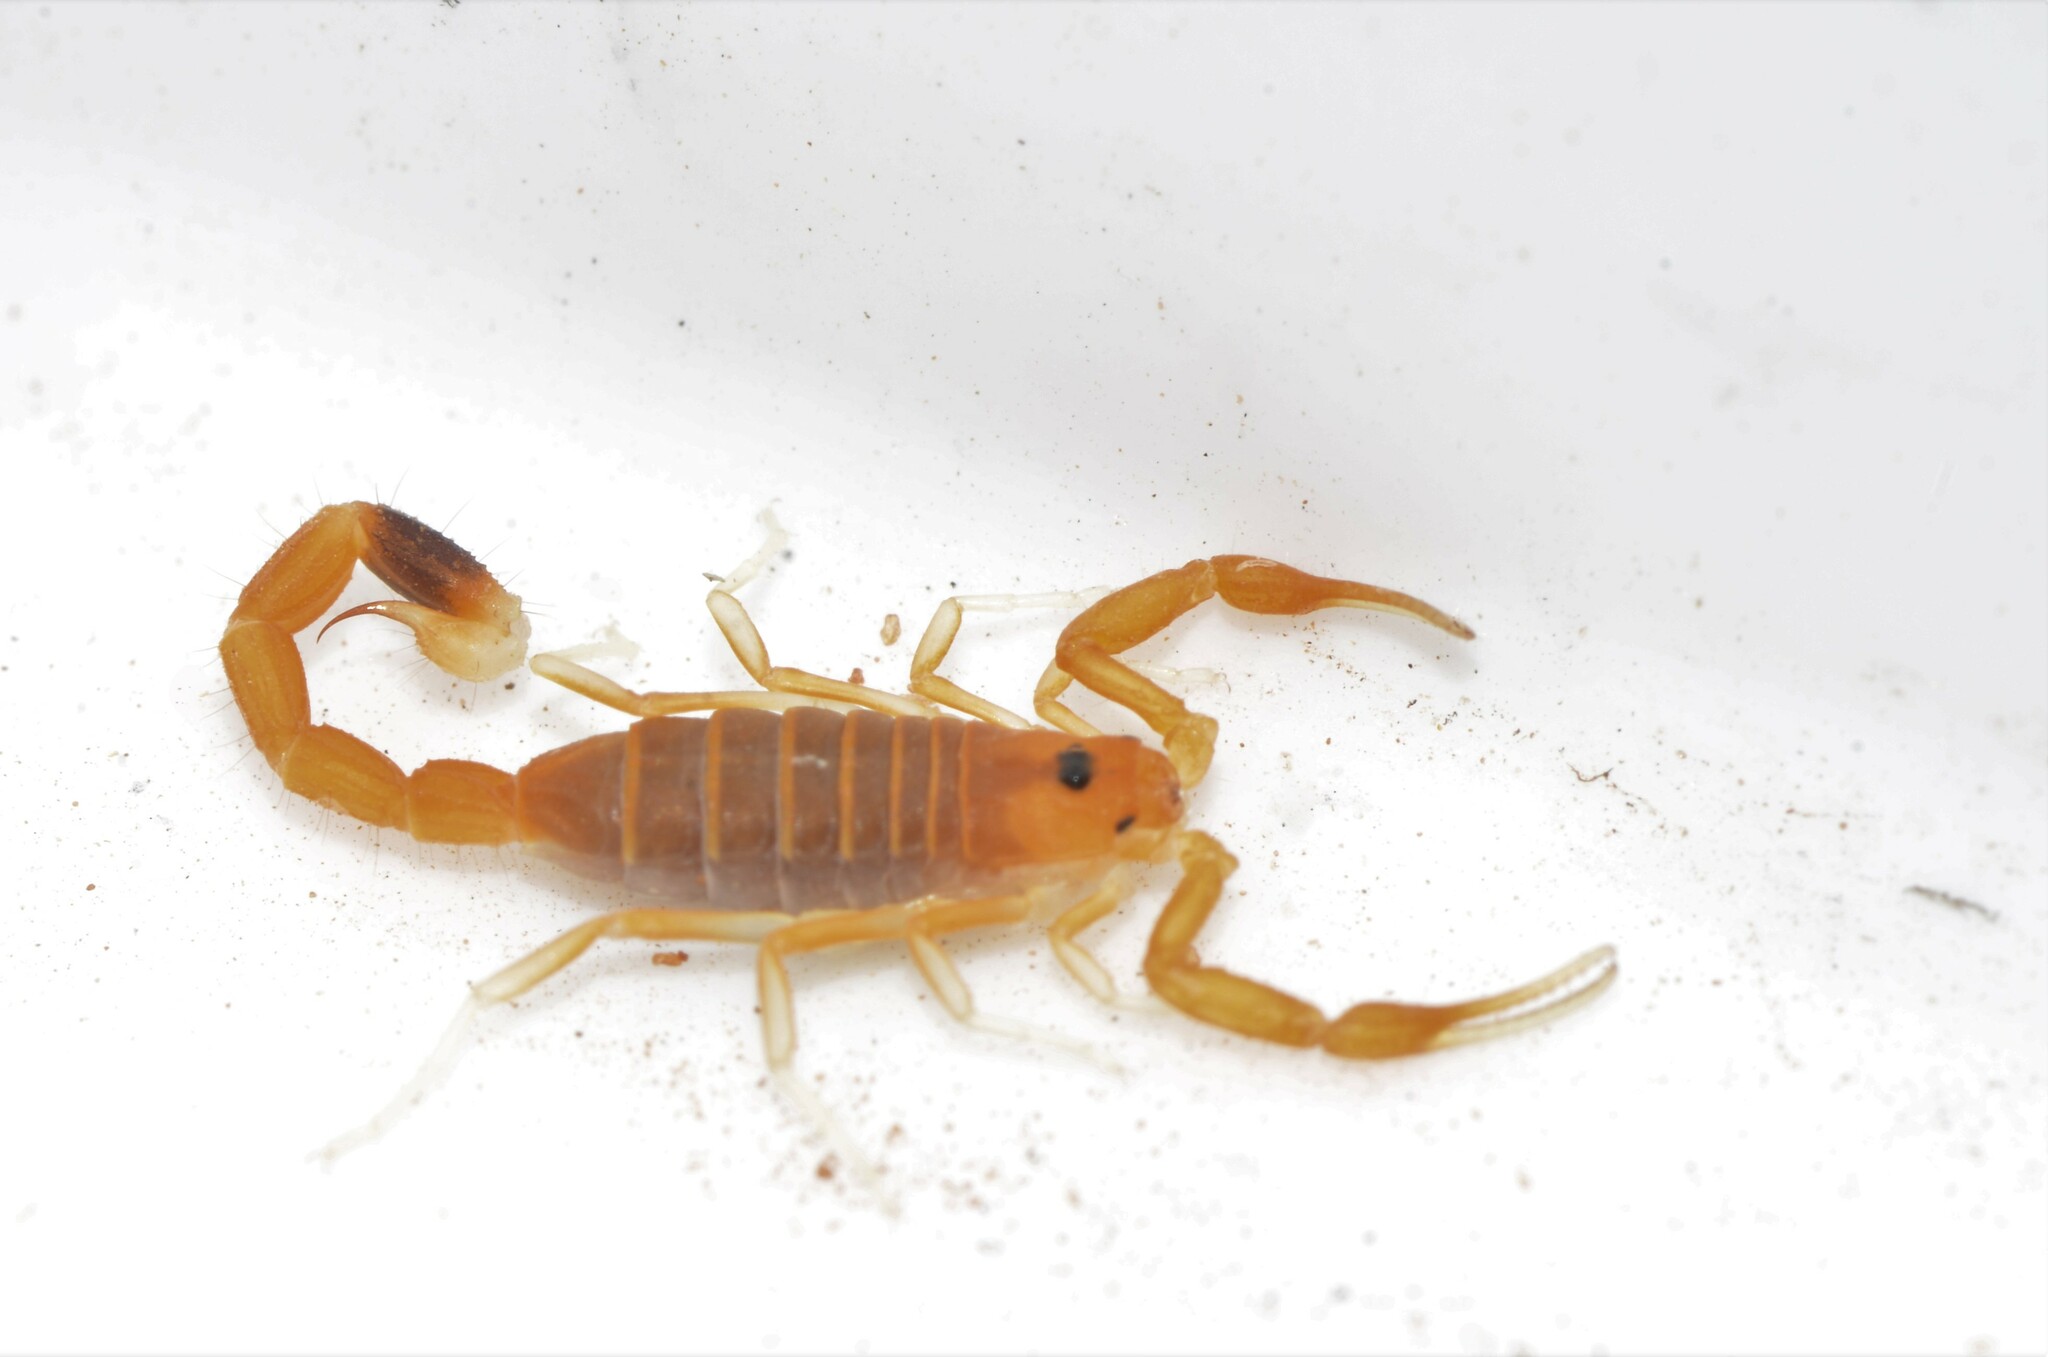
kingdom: Animalia
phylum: Arthropoda
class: Arachnida
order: Scorpiones
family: Buthidae
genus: Uroplectes
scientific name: Uroplectes gracilior
